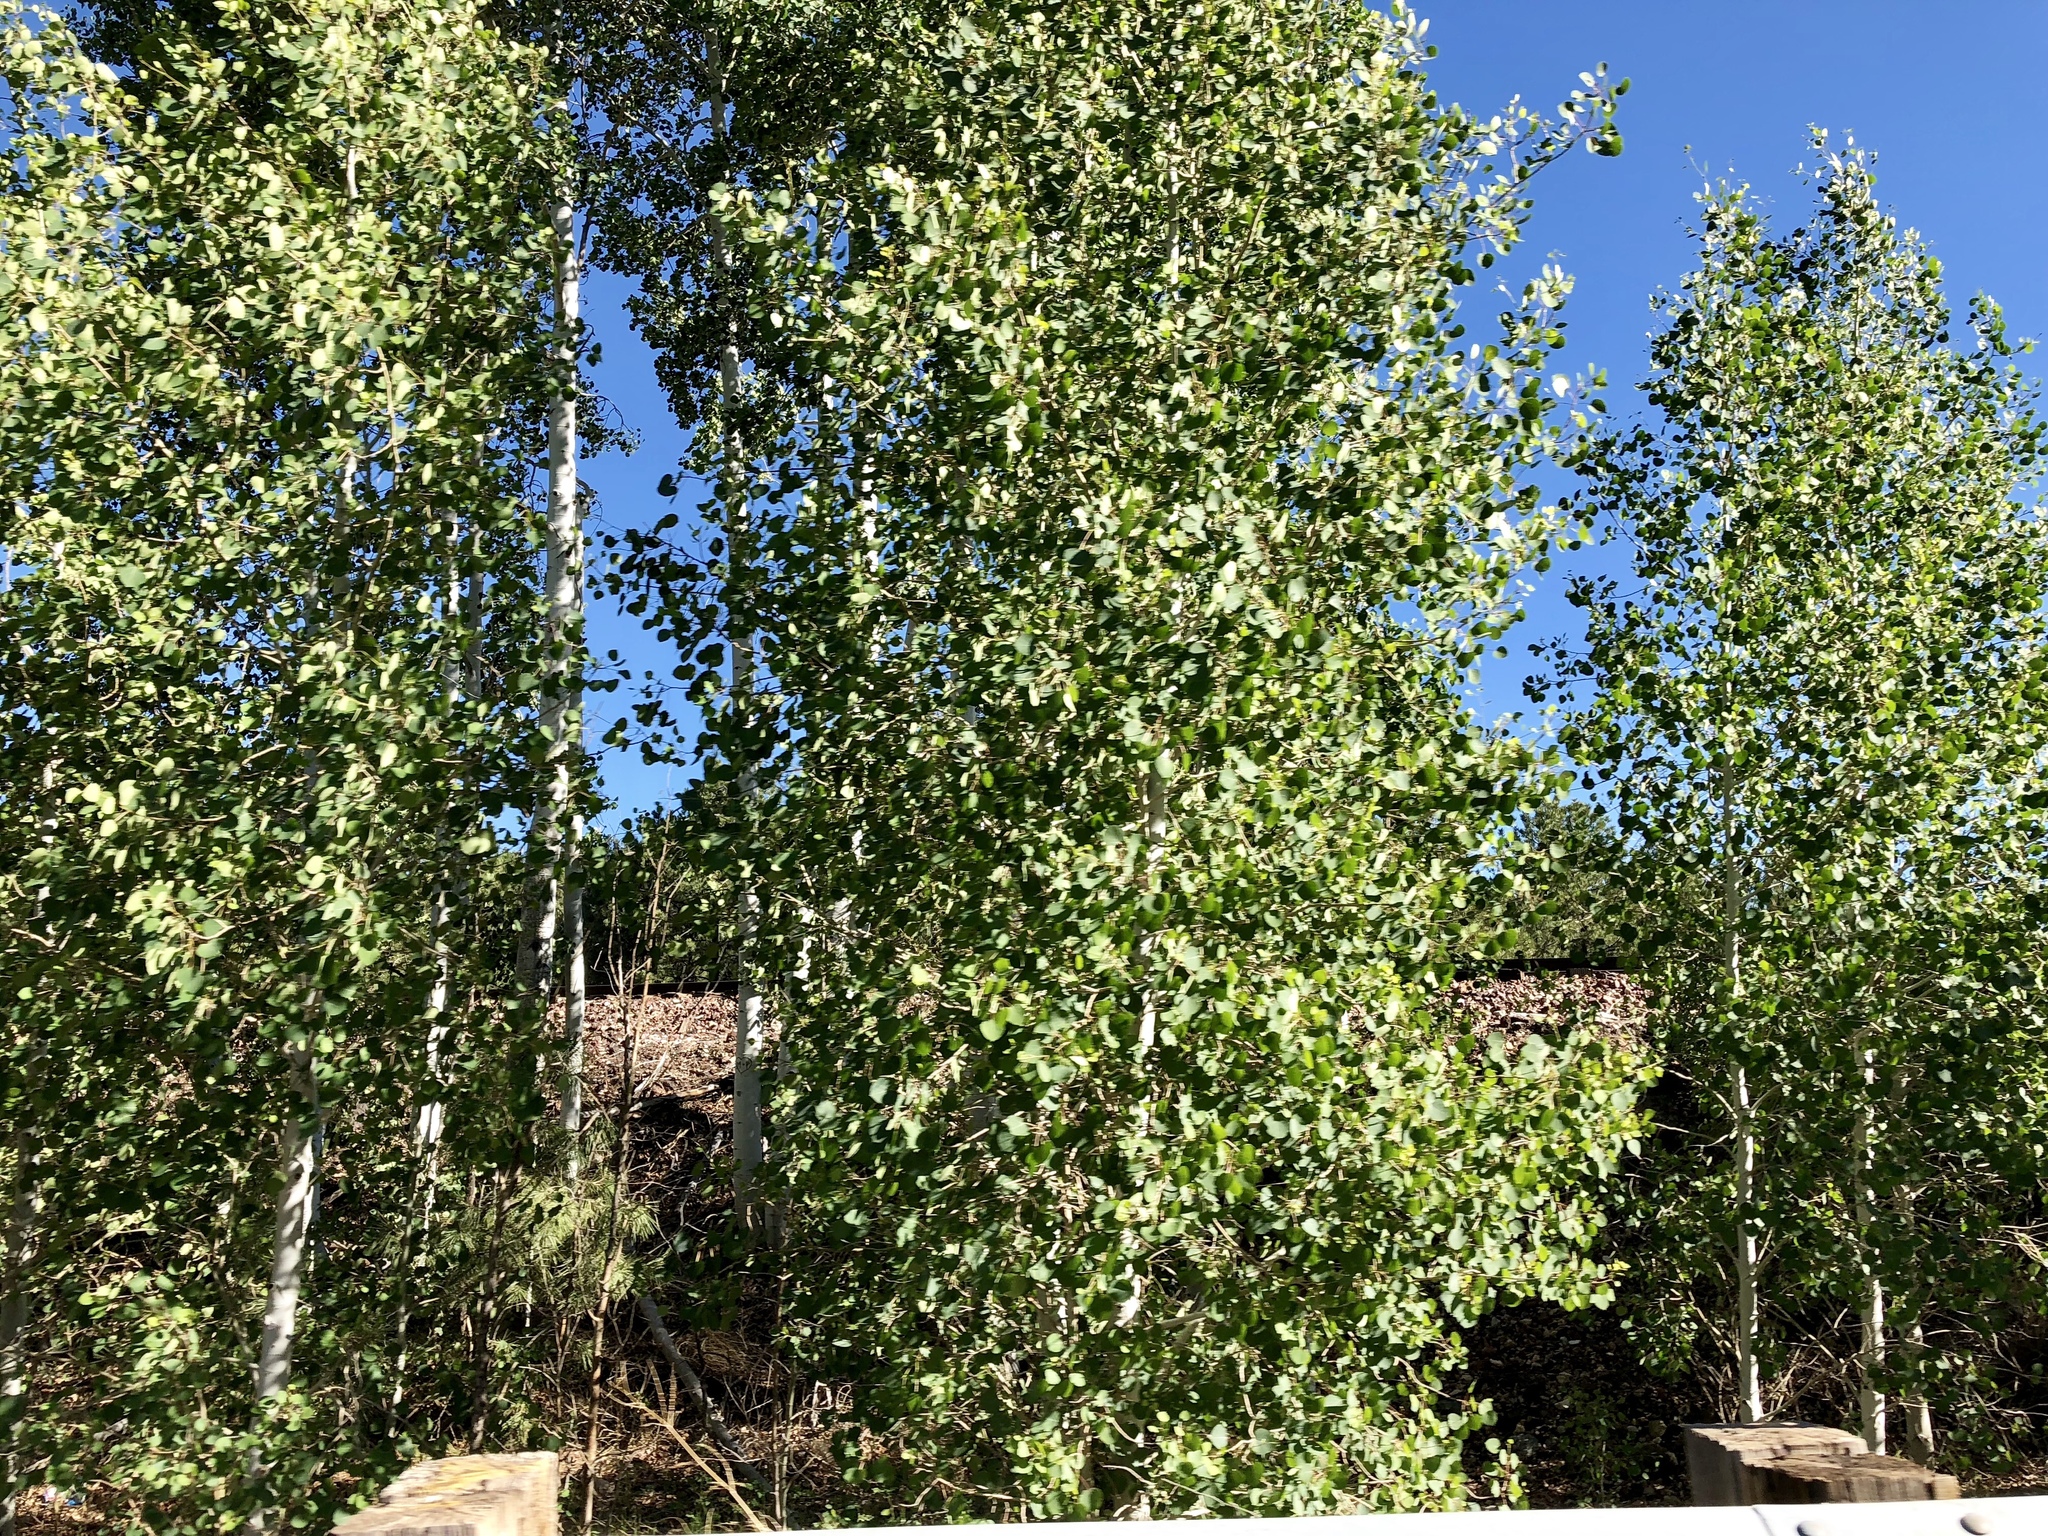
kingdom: Plantae
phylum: Tracheophyta
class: Magnoliopsida
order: Malpighiales
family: Salicaceae
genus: Populus
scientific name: Populus tremuloides
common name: Quaking aspen
